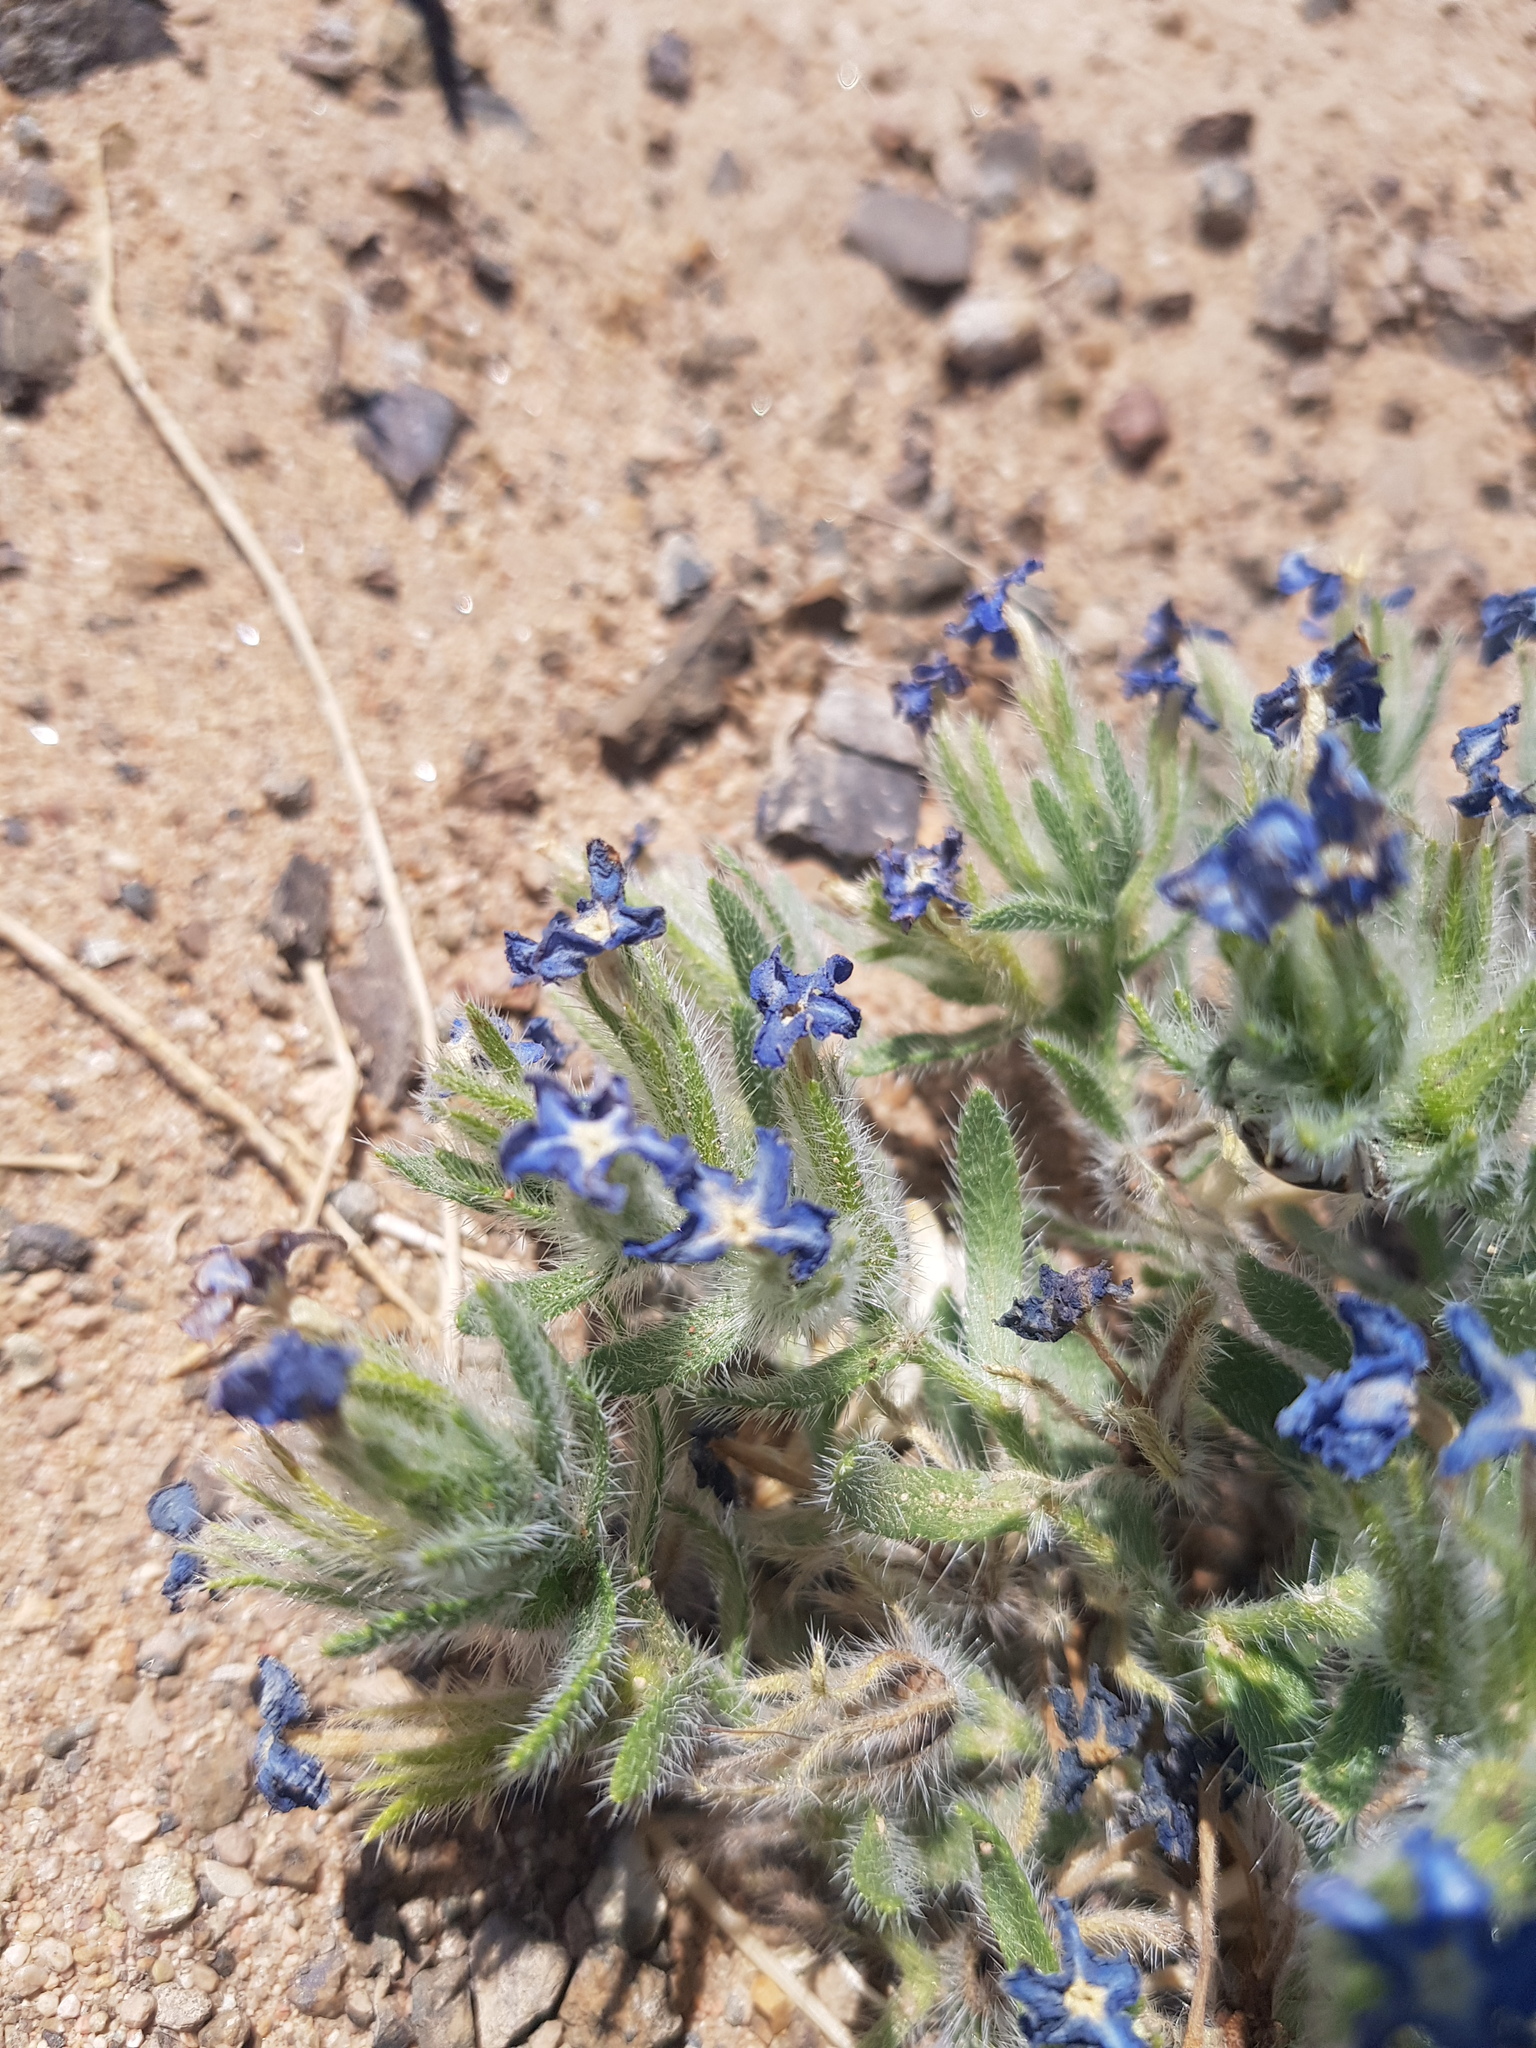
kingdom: Plantae
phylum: Tracheophyta
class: Magnoliopsida
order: Boraginales
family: Boraginaceae
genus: Arnebia
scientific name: Arnebia fimbriata
